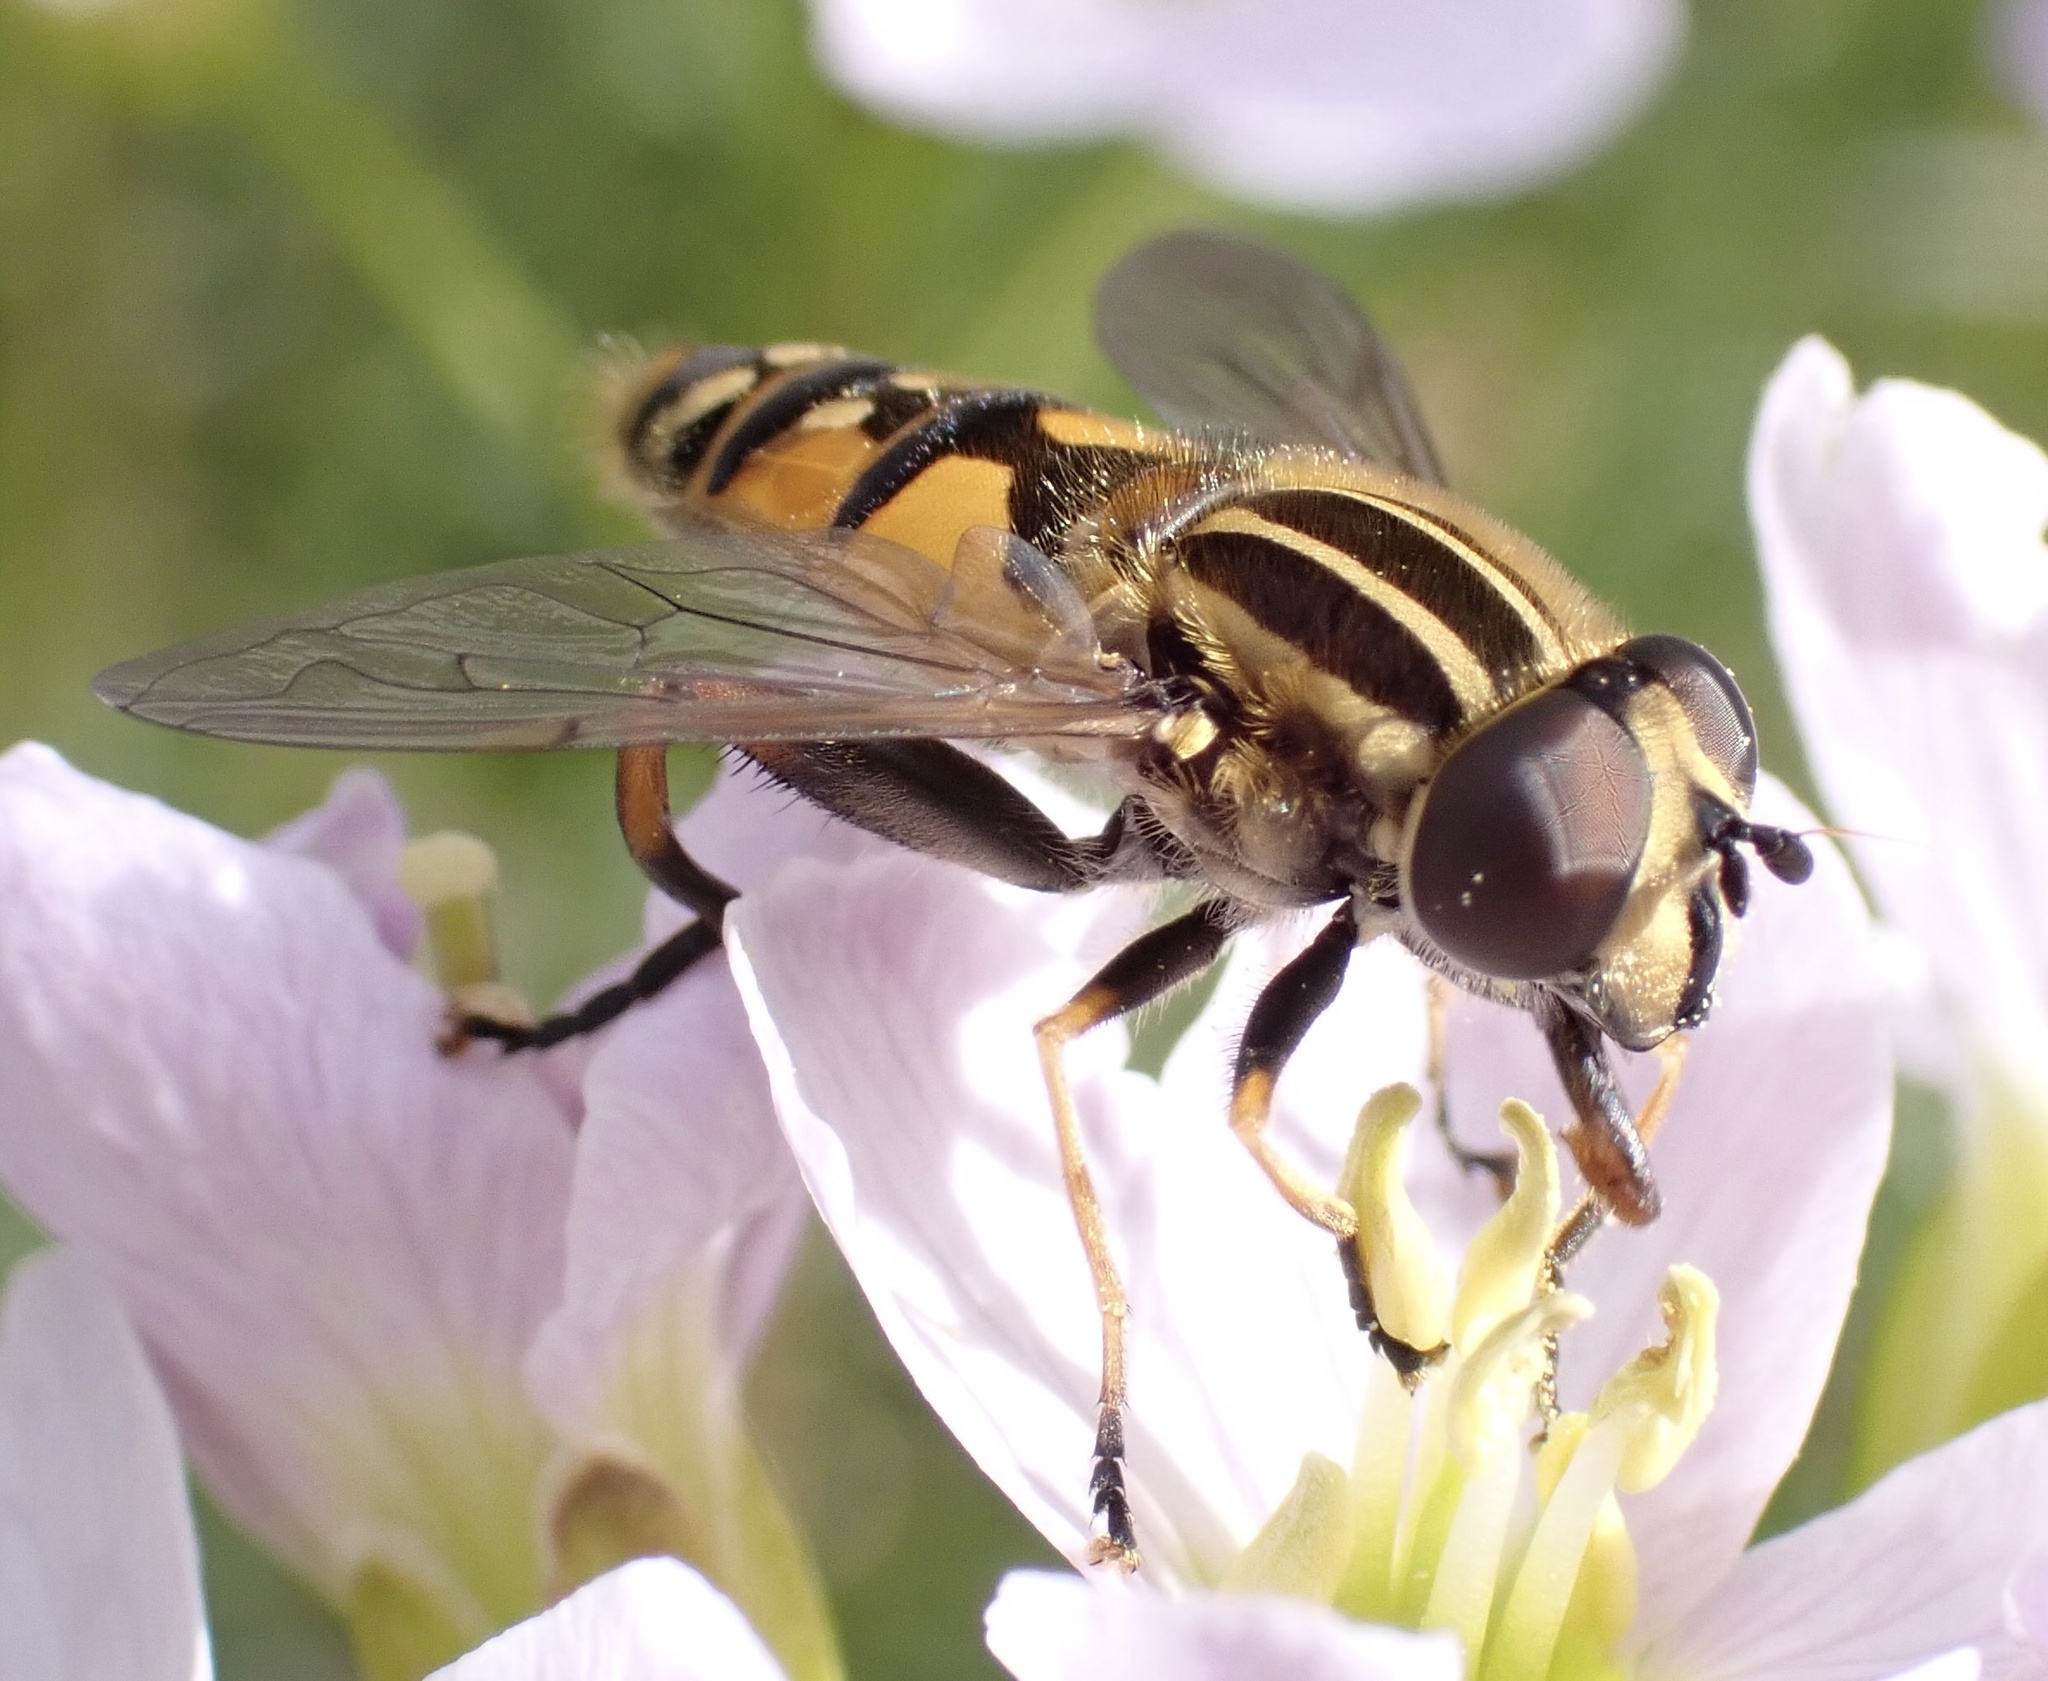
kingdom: Animalia
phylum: Arthropoda
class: Insecta
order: Diptera
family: Syrphidae
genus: Helophilus
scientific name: Helophilus pendulus
